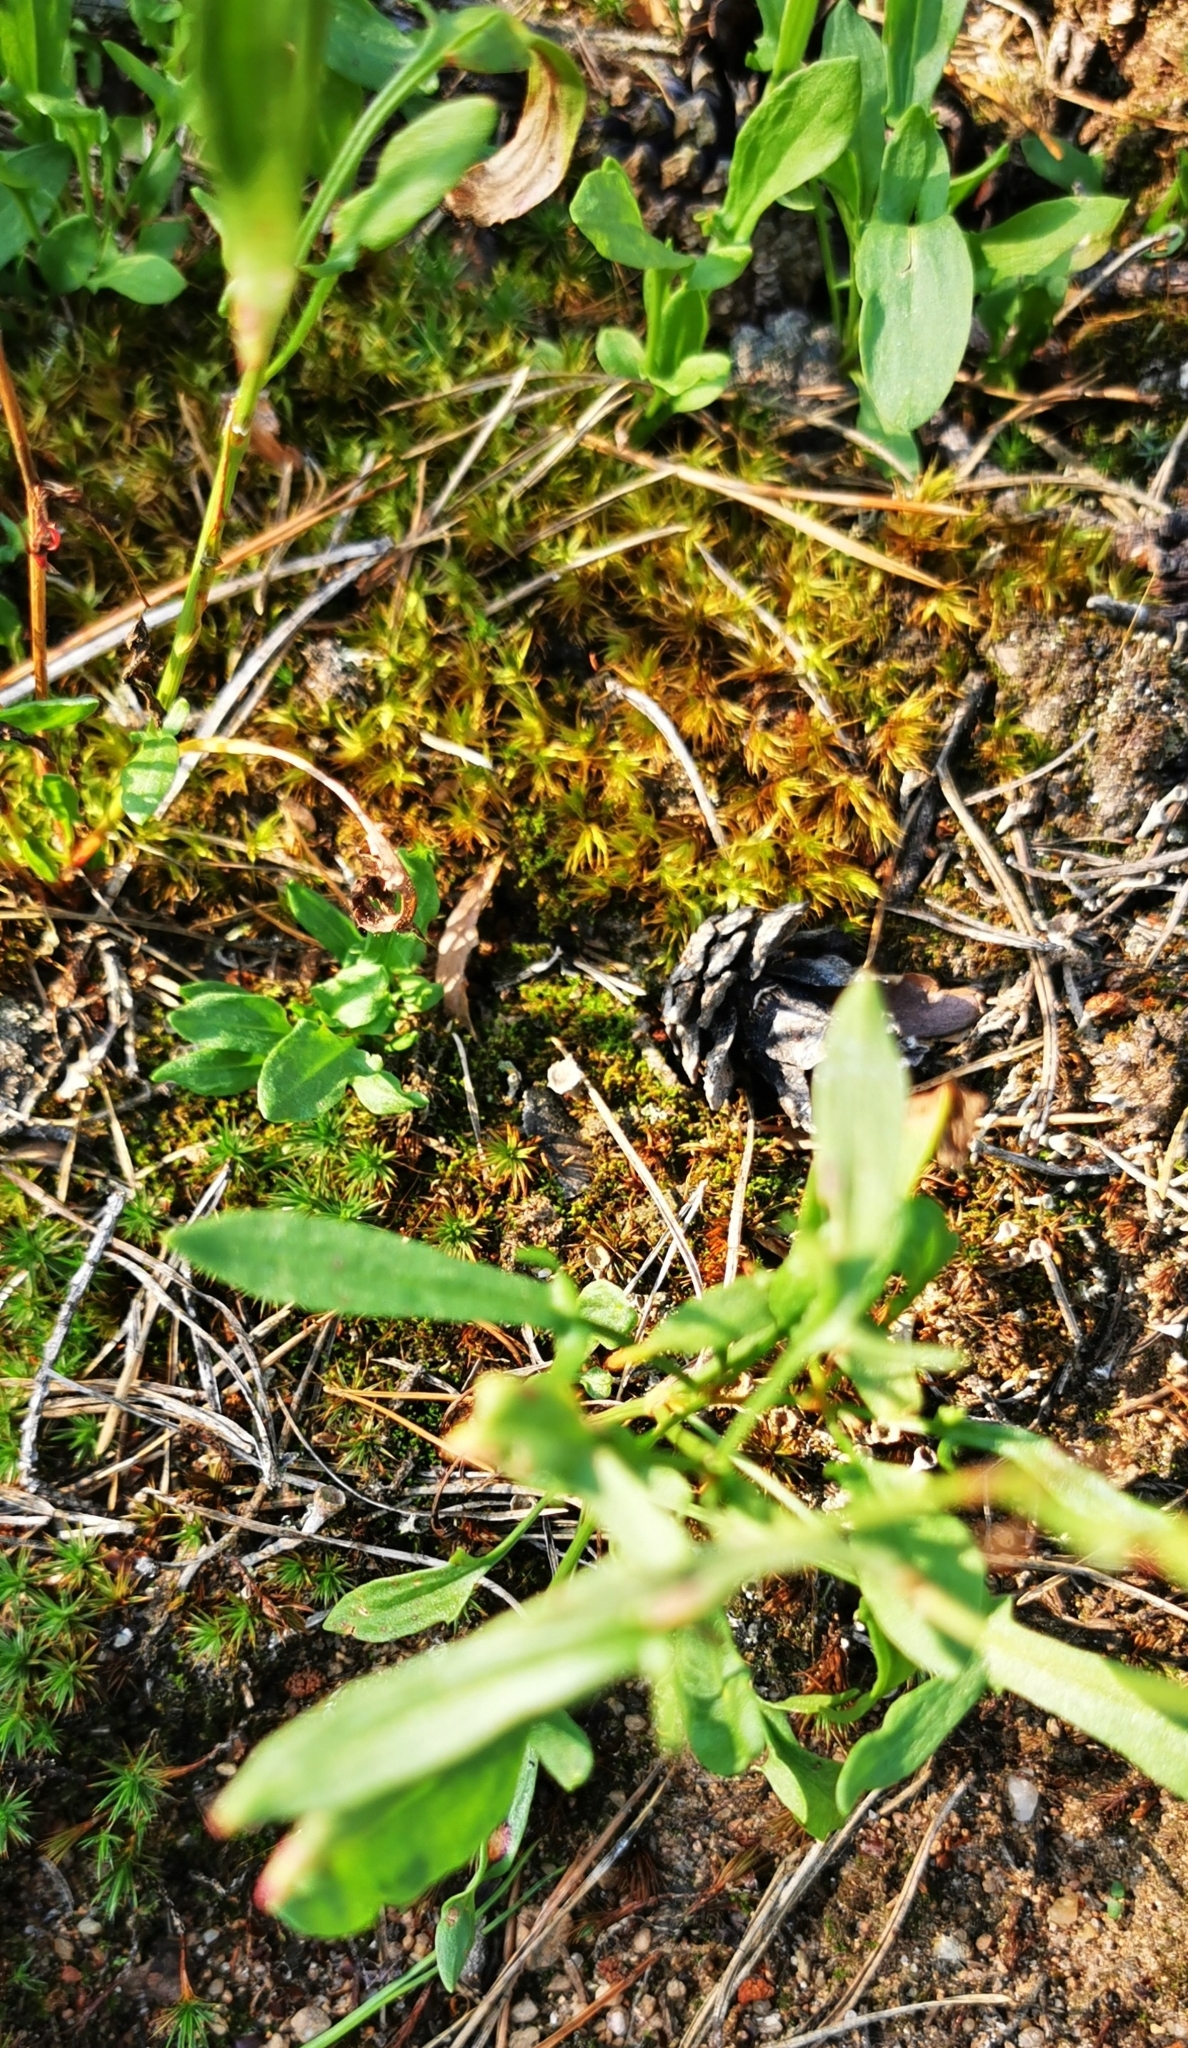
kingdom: Plantae
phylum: Tracheophyta
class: Magnoliopsida
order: Caryophyllales
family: Polygonaceae
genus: Rumex
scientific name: Rumex acetosella
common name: Common sheep sorrel
